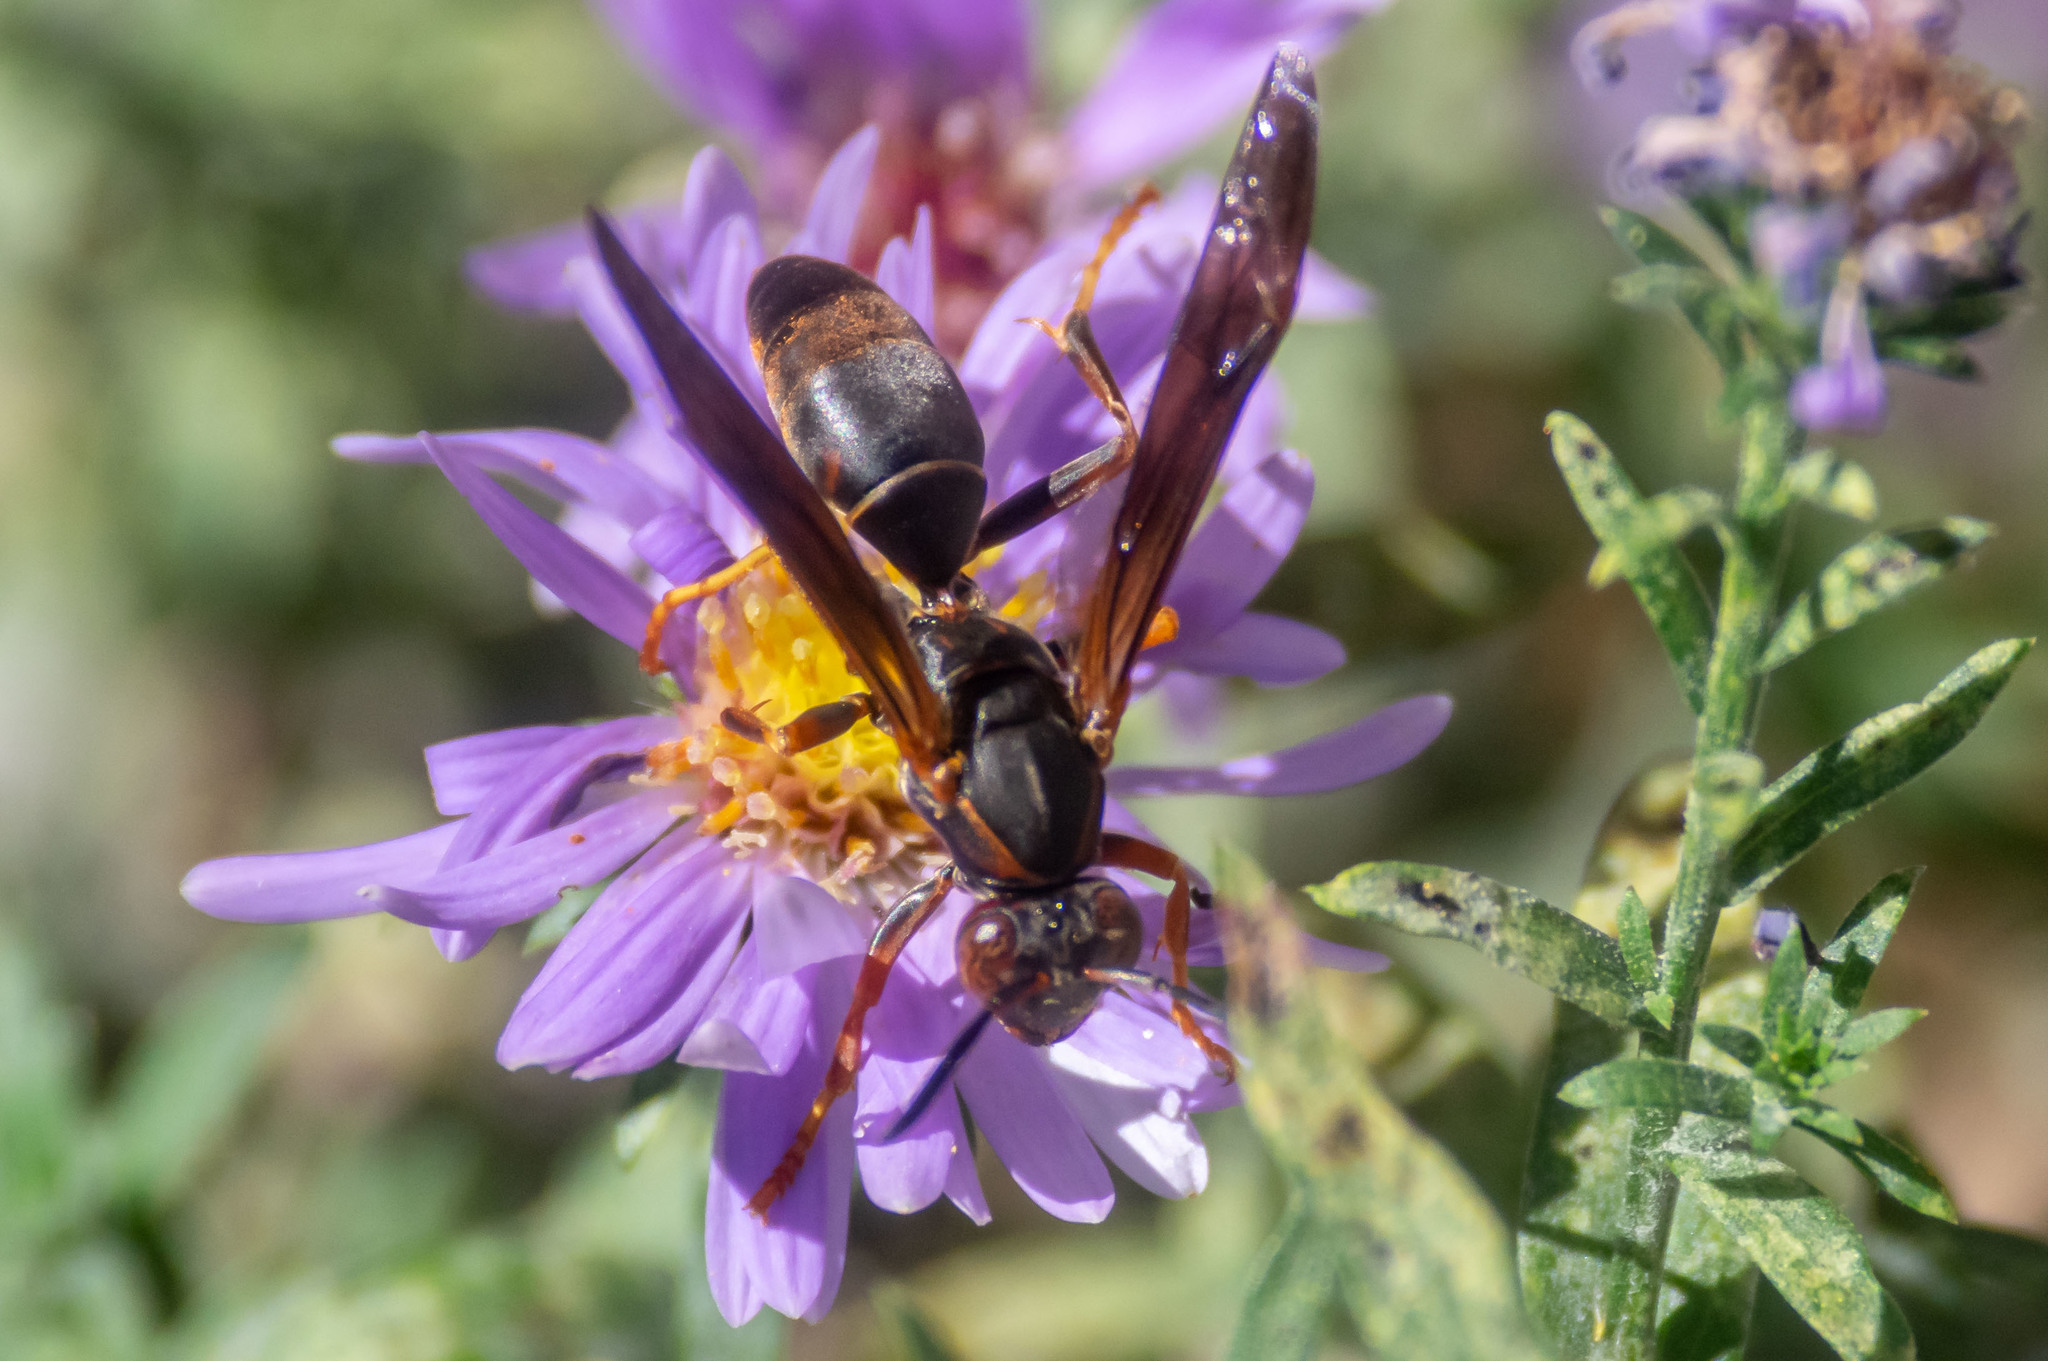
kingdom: Animalia
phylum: Arthropoda
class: Insecta
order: Hymenoptera
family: Eumenidae
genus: Polistes
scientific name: Polistes fuscatus
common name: Dark paper wasp
